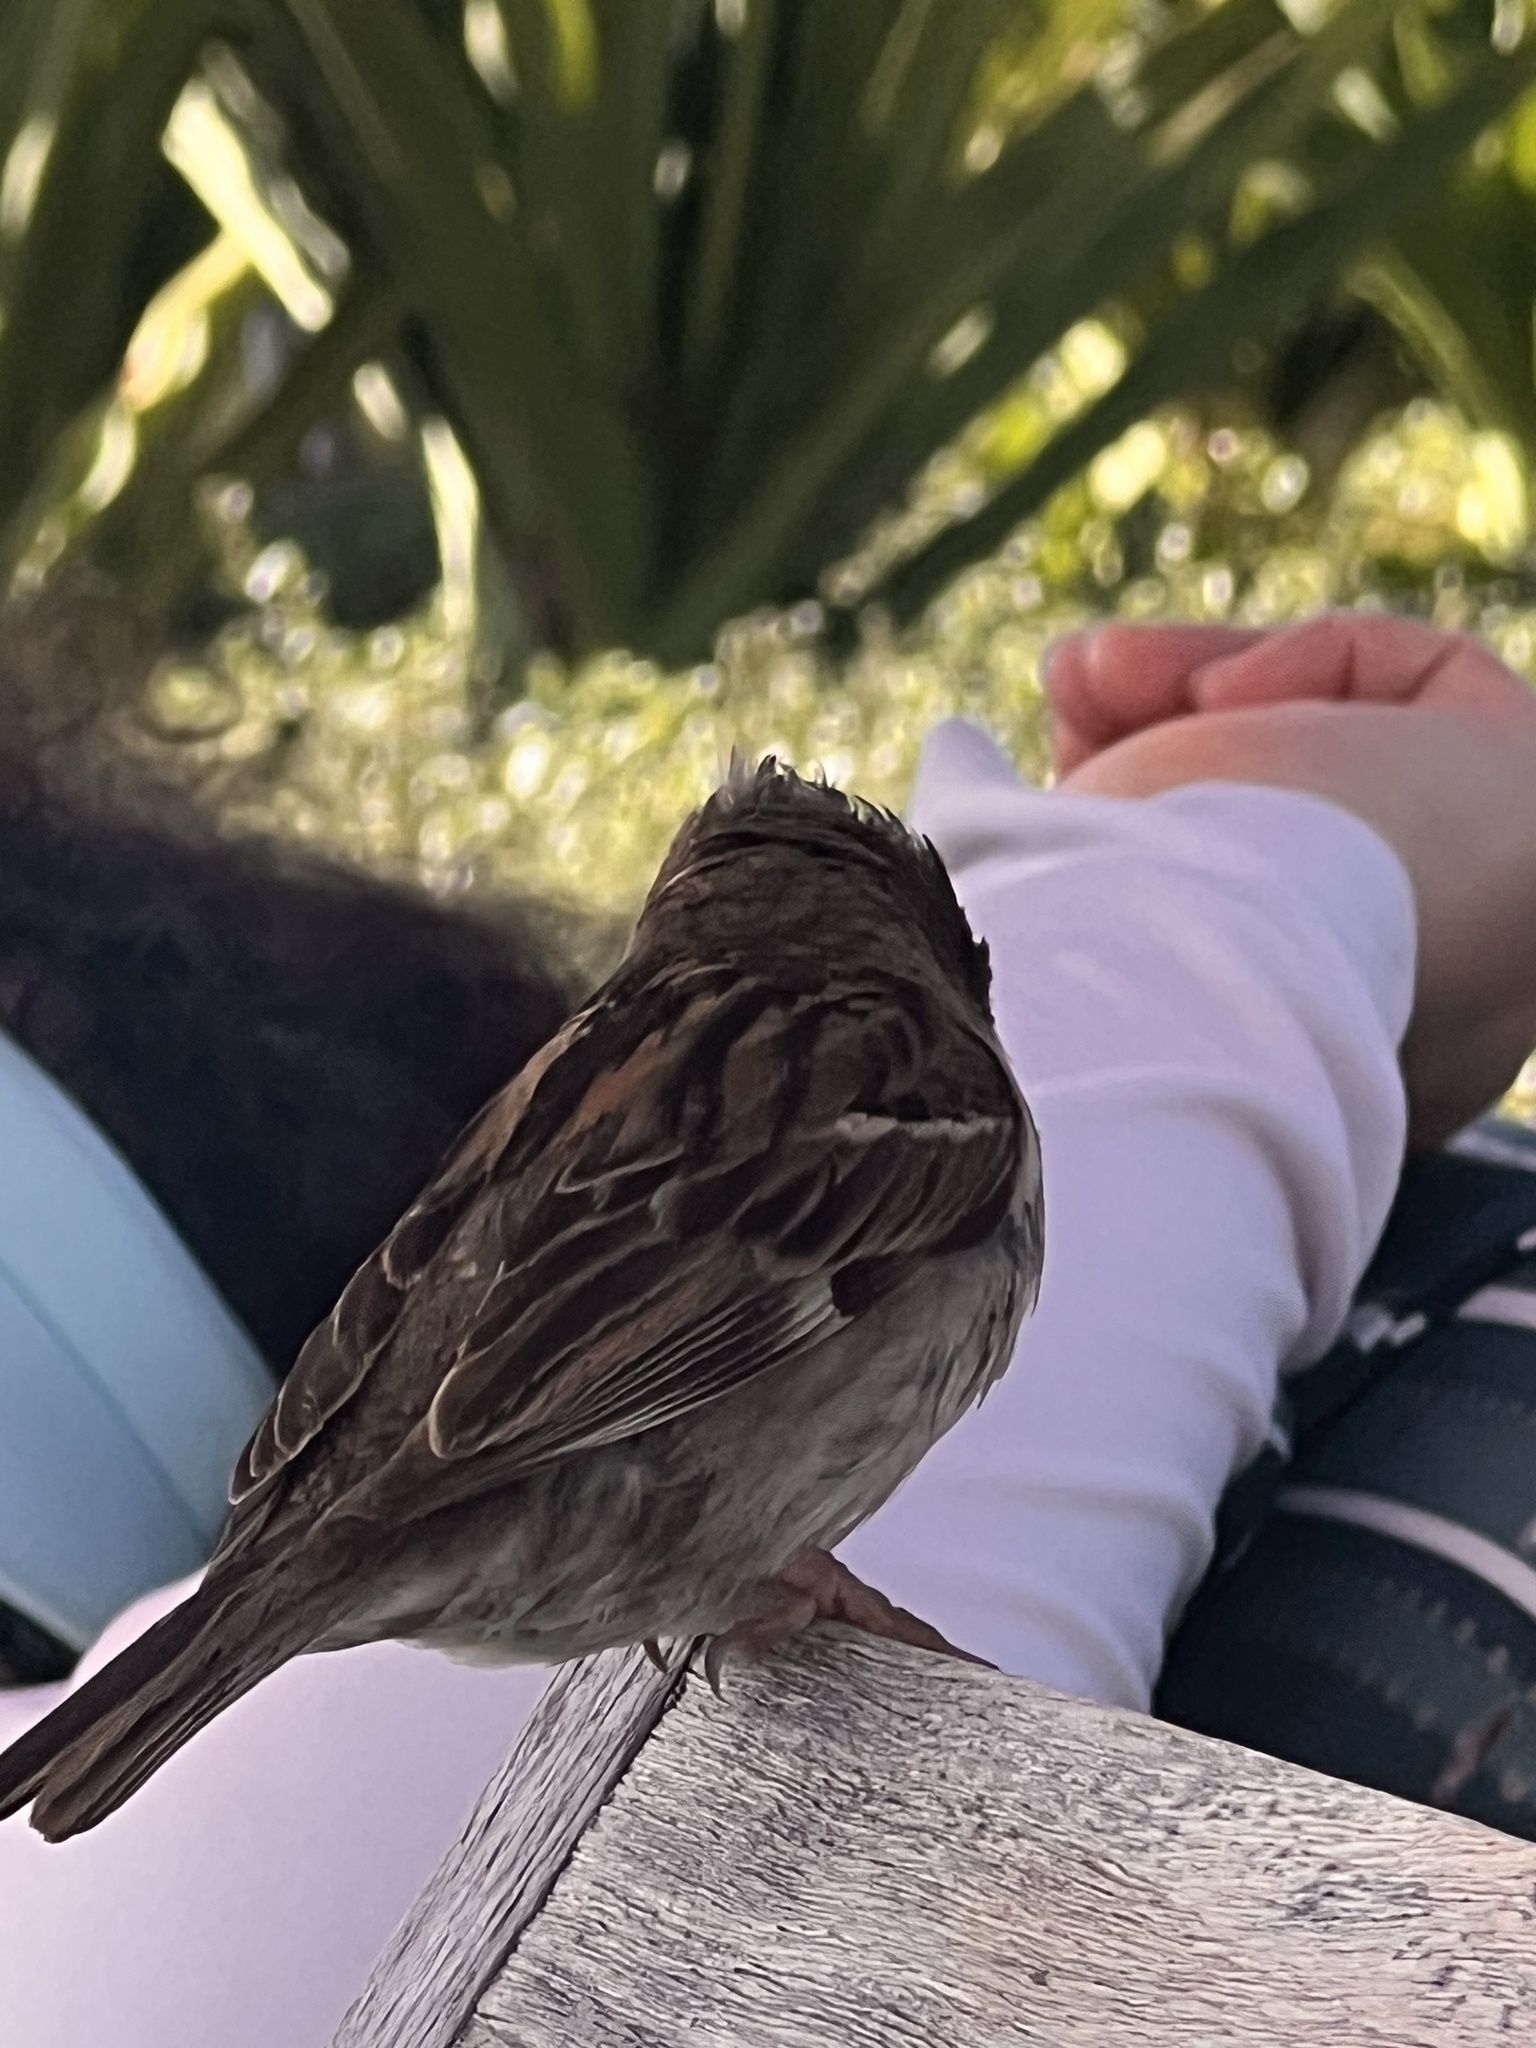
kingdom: Animalia
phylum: Chordata
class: Aves
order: Passeriformes
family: Passeridae
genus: Passer
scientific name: Passer domesticus
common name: House sparrow
